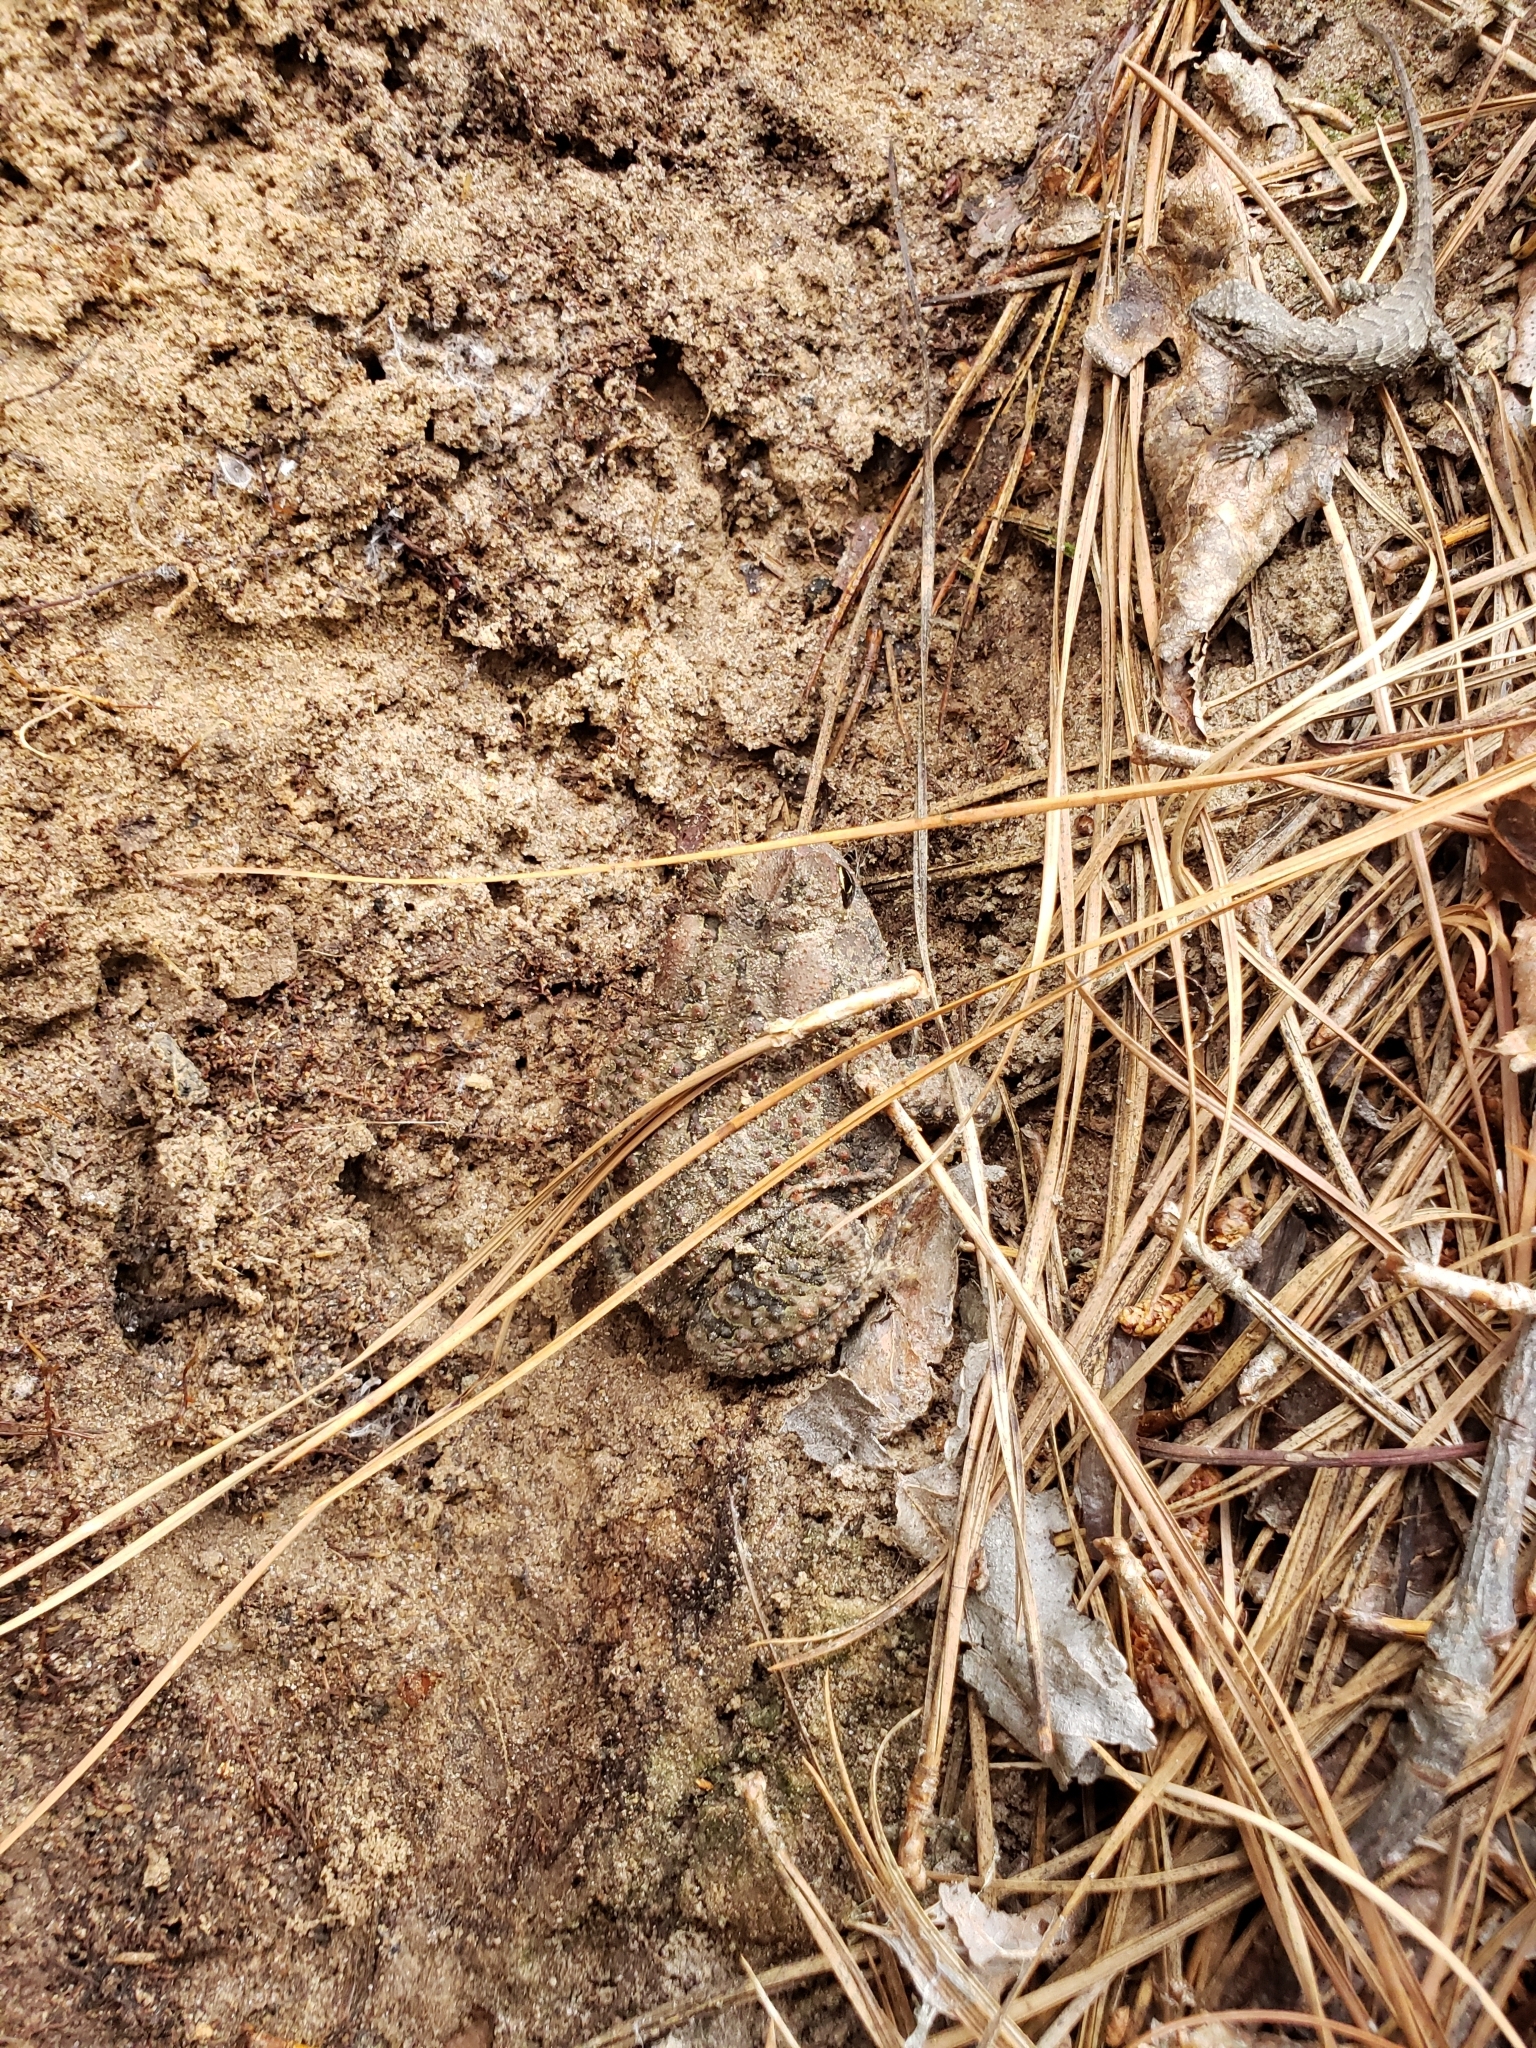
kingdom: Animalia
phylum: Chordata
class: Amphibia
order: Anura
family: Bufonidae
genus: Anaxyrus
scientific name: Anaxyrus fowleri
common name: Fowler's toad
